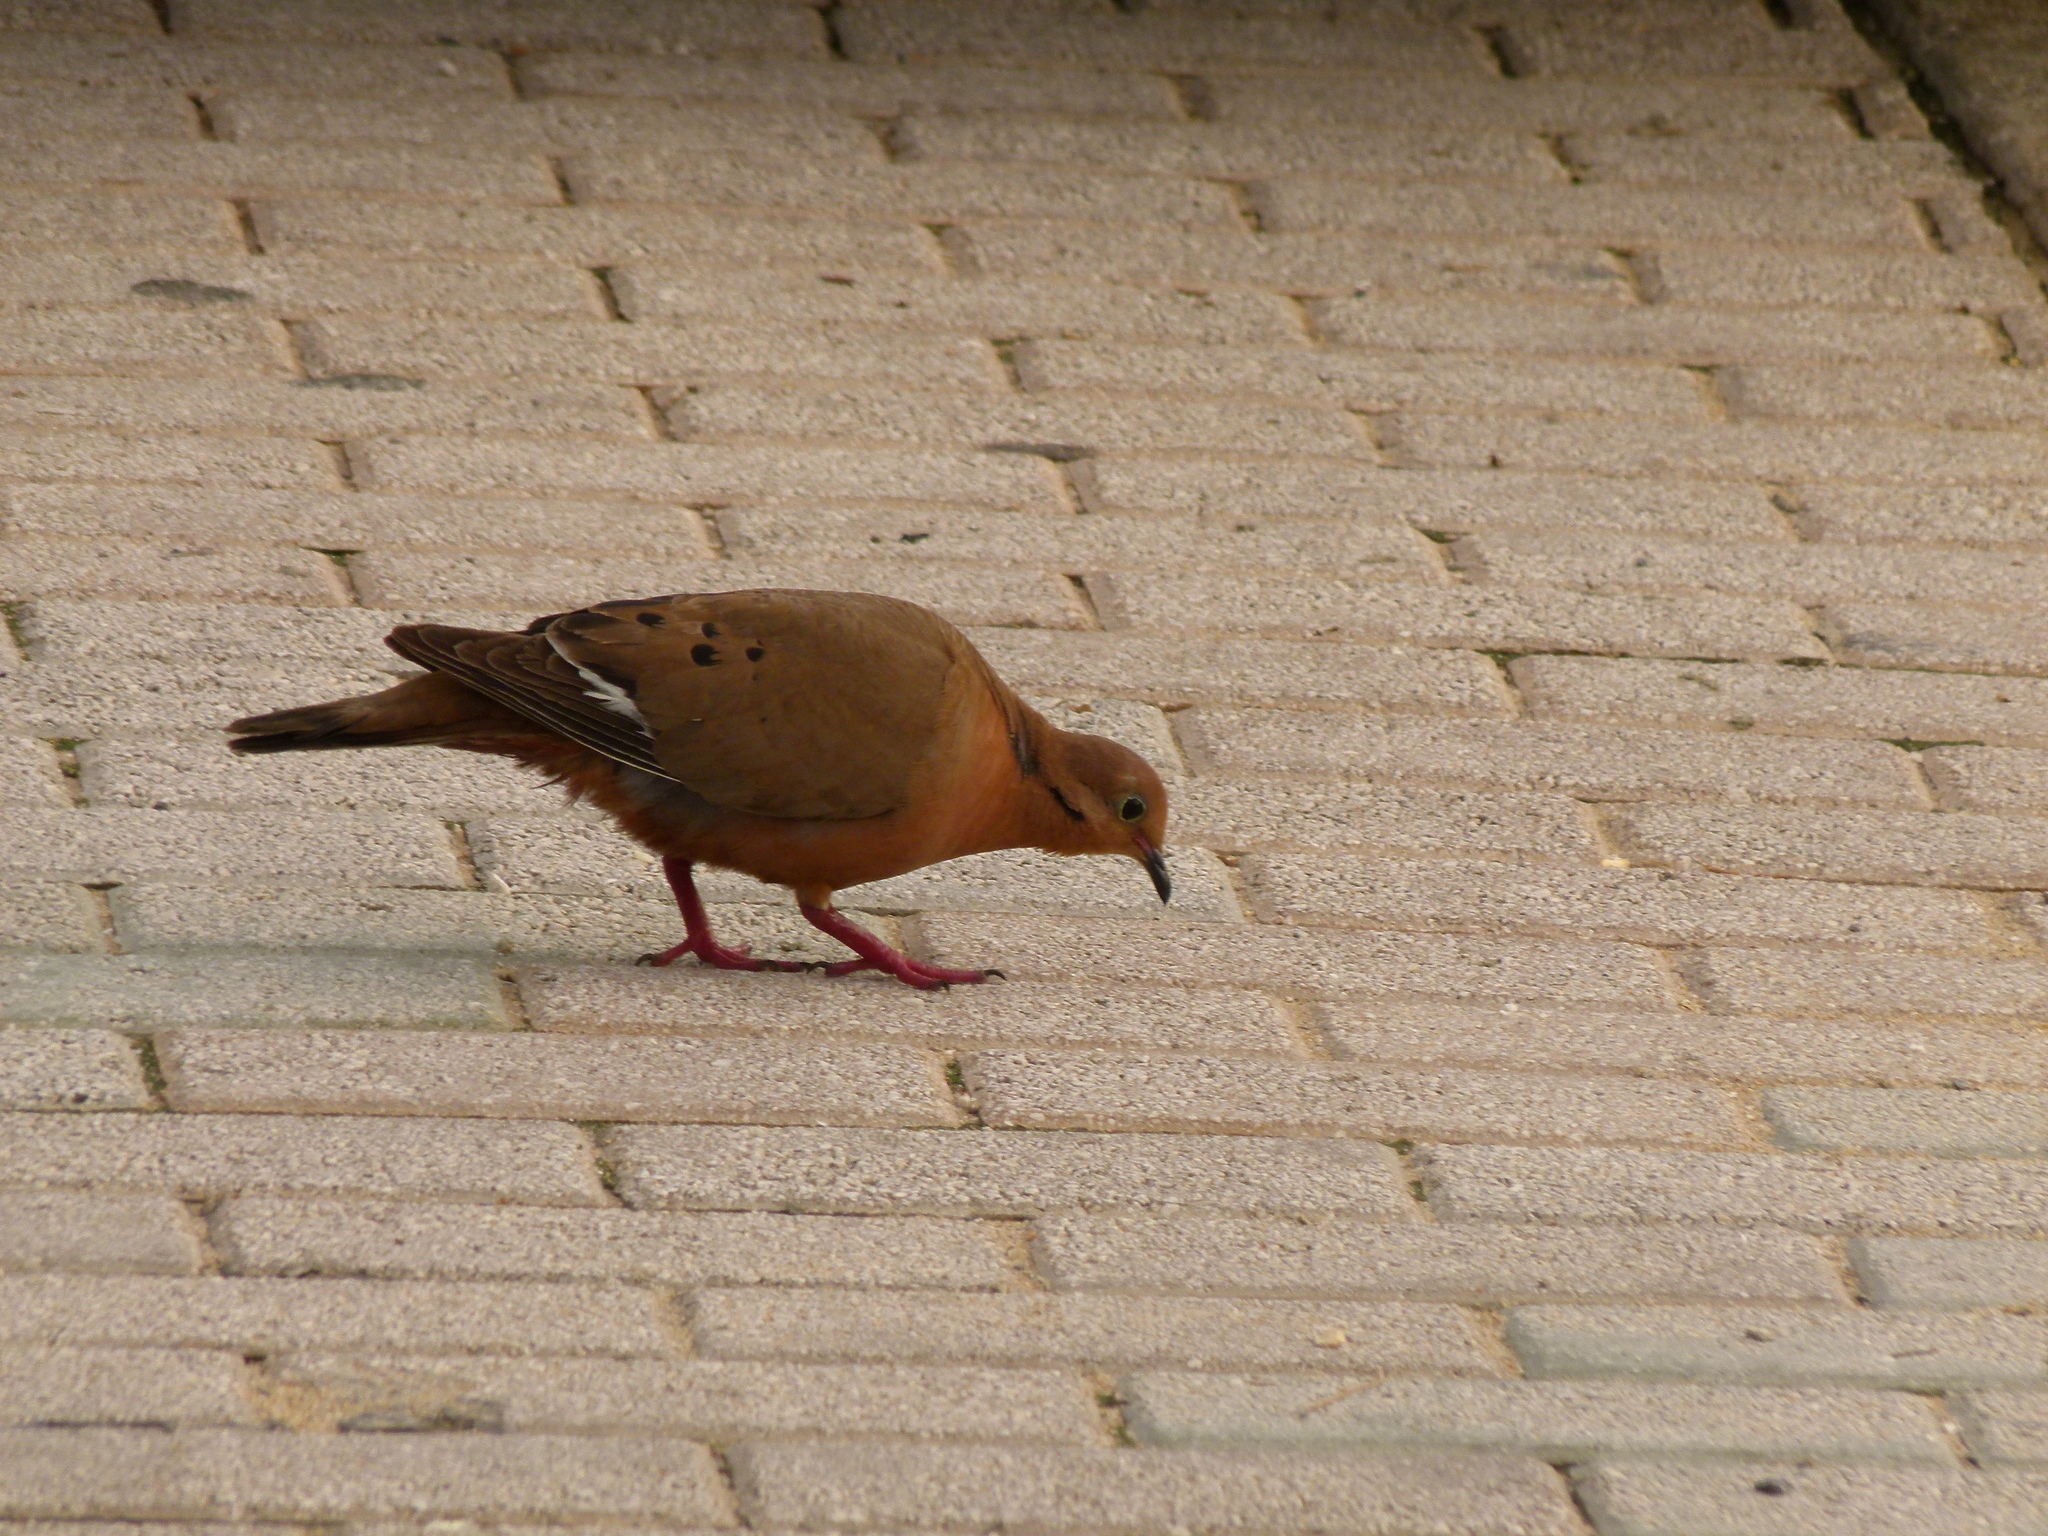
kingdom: Animalia
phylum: Chordata
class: Aves
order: Columbiformes
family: Columbidae
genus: Zenaida
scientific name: Zenaida aurita
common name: Zenaida dove
